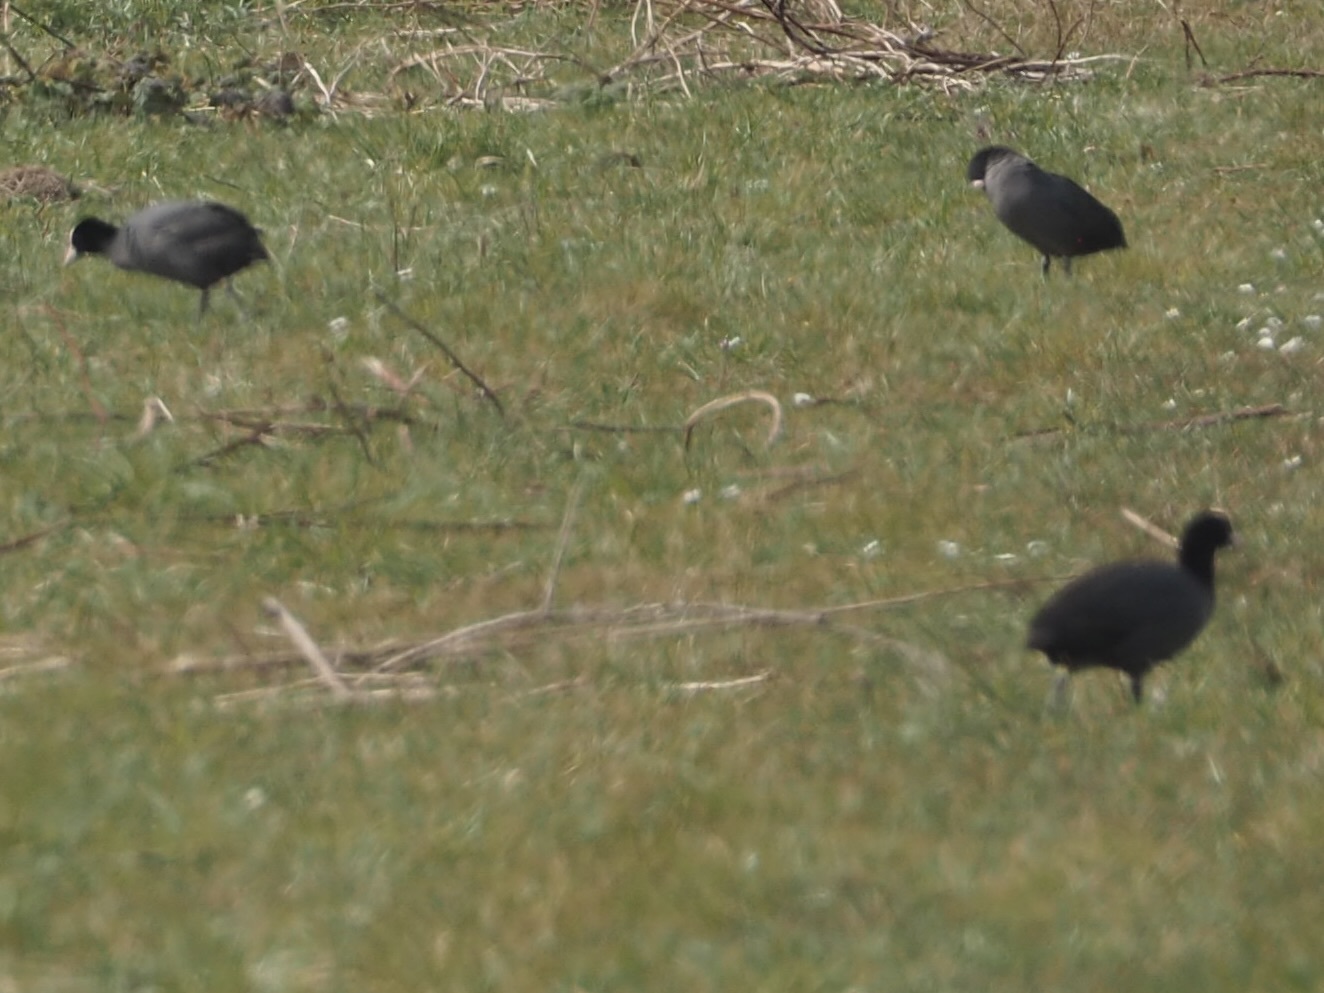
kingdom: Animalia
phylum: Chordata
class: Aves
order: Gruiformes
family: Rallidae
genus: Fulica
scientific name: Fulica atra
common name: Eurasian coot
